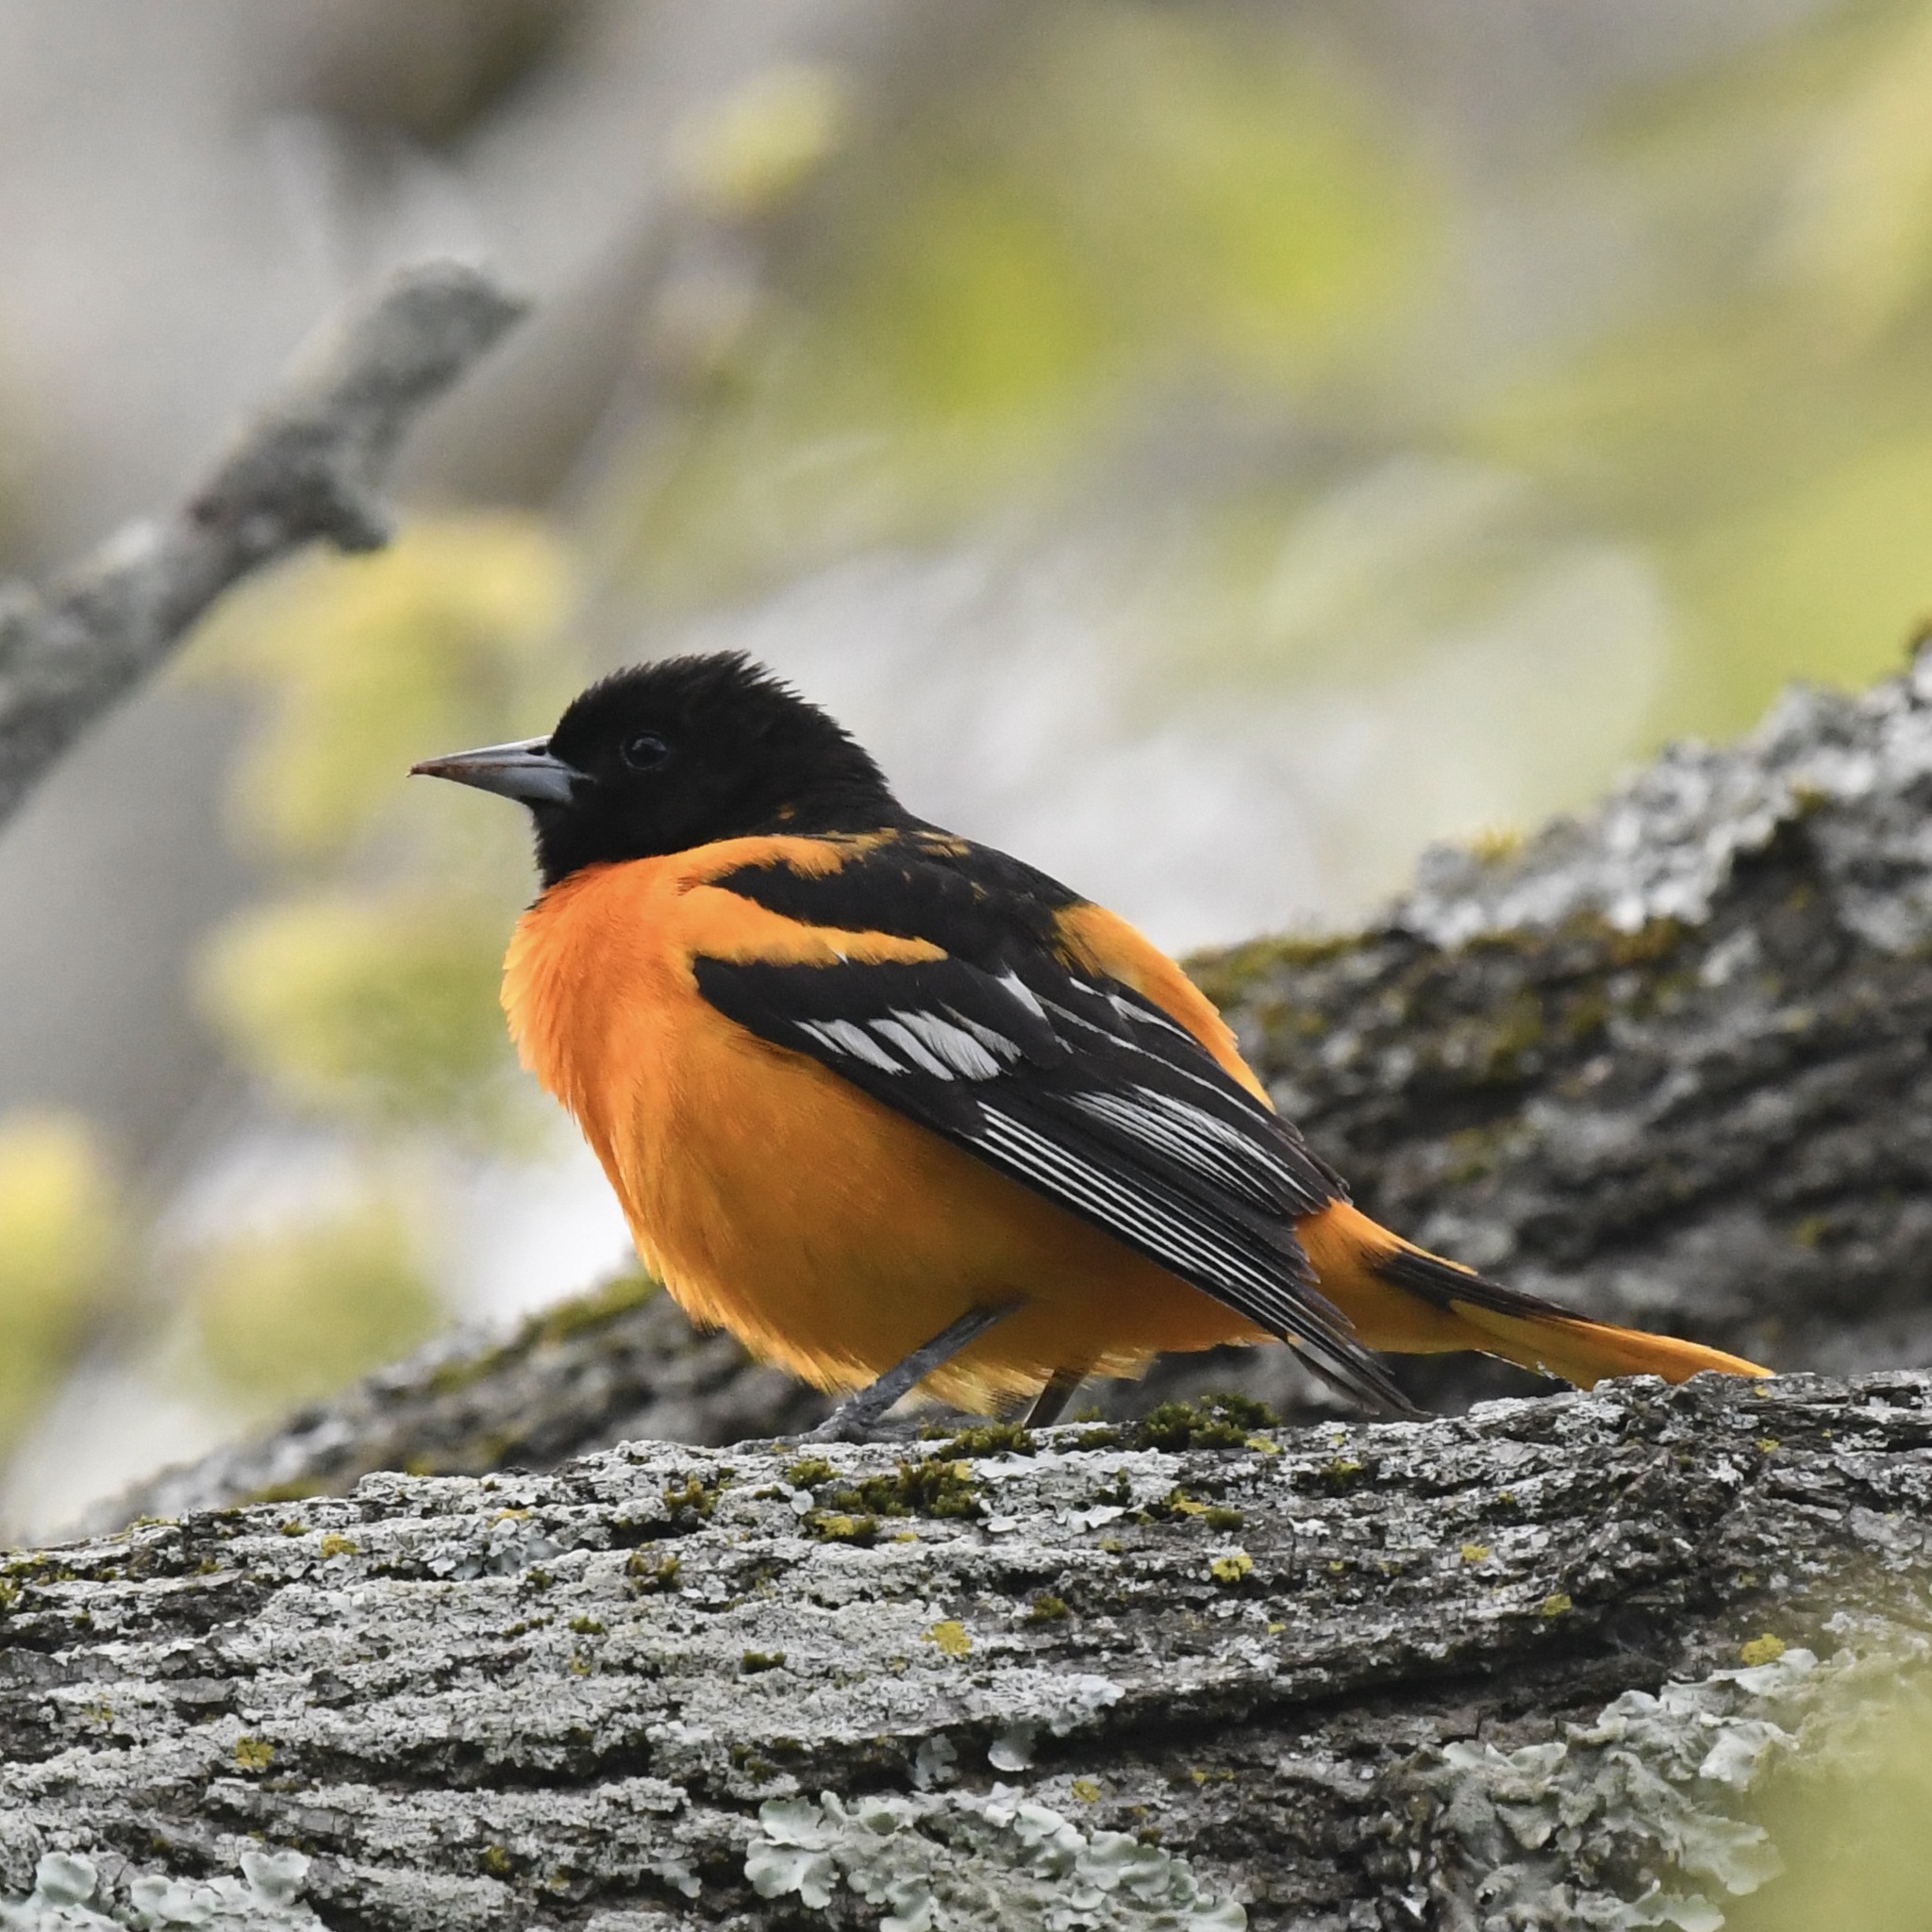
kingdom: Animalia
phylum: Chordata
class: Aves
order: Passeriformes
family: Icteridae
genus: Icterus
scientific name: Icterus galbula
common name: Baltimore oriole
